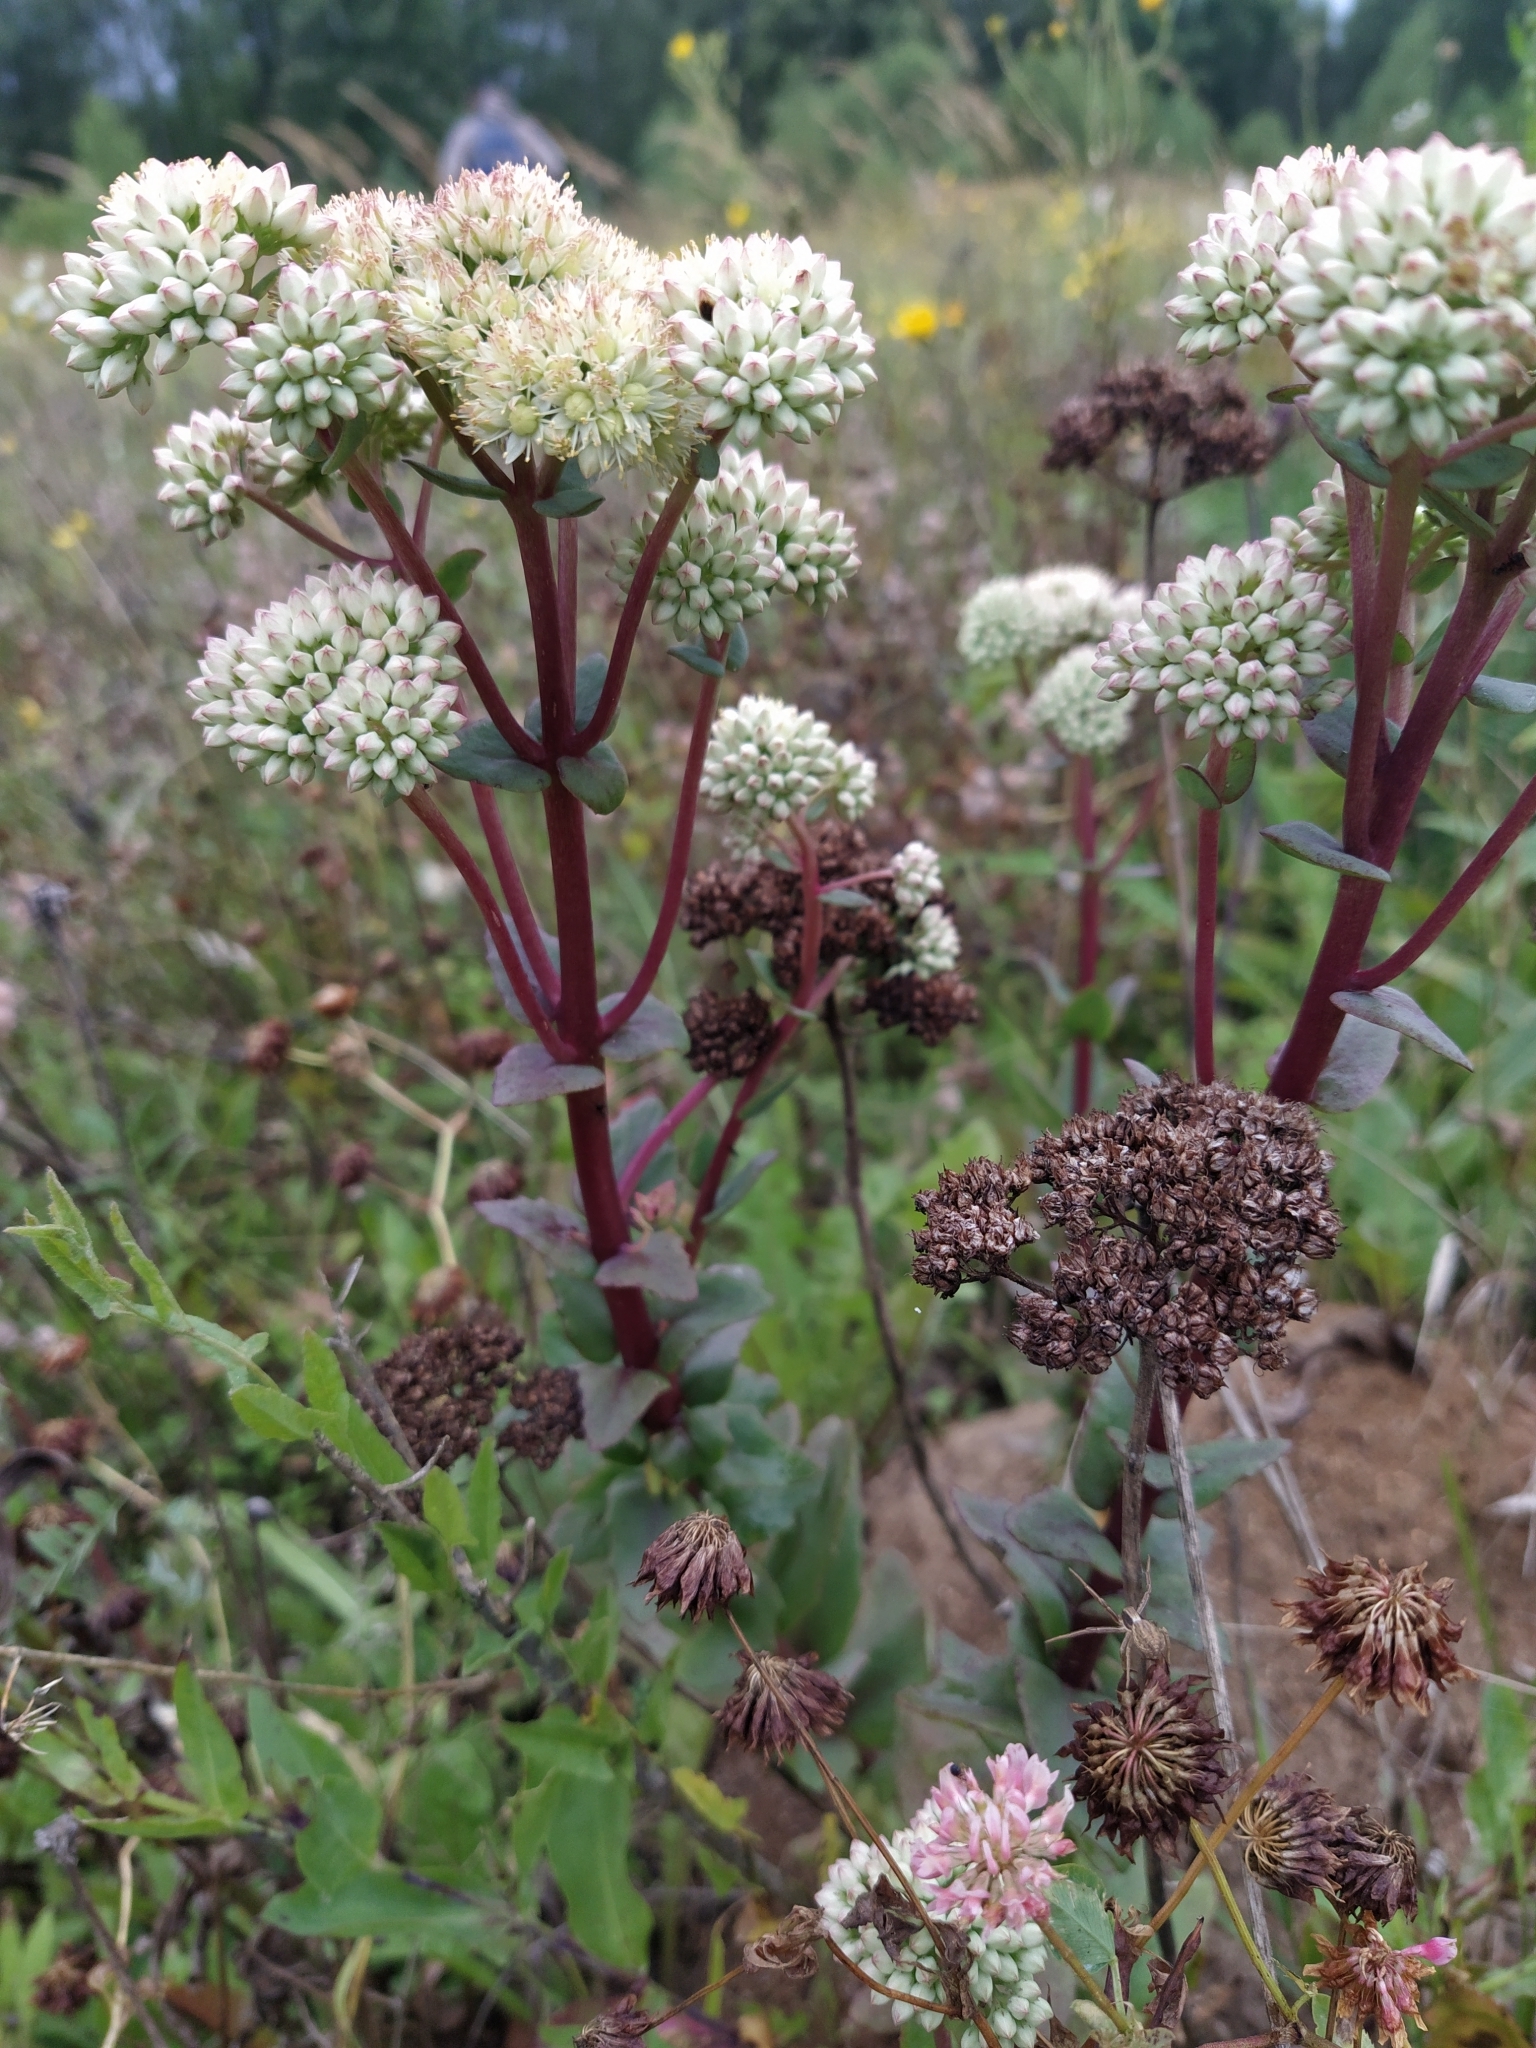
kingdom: Plantae
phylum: Tracheophyta
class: Magnoliopsida
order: Saxifragales
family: Crassulaceae
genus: Hylotelephium
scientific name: Hylotelephium maximum
